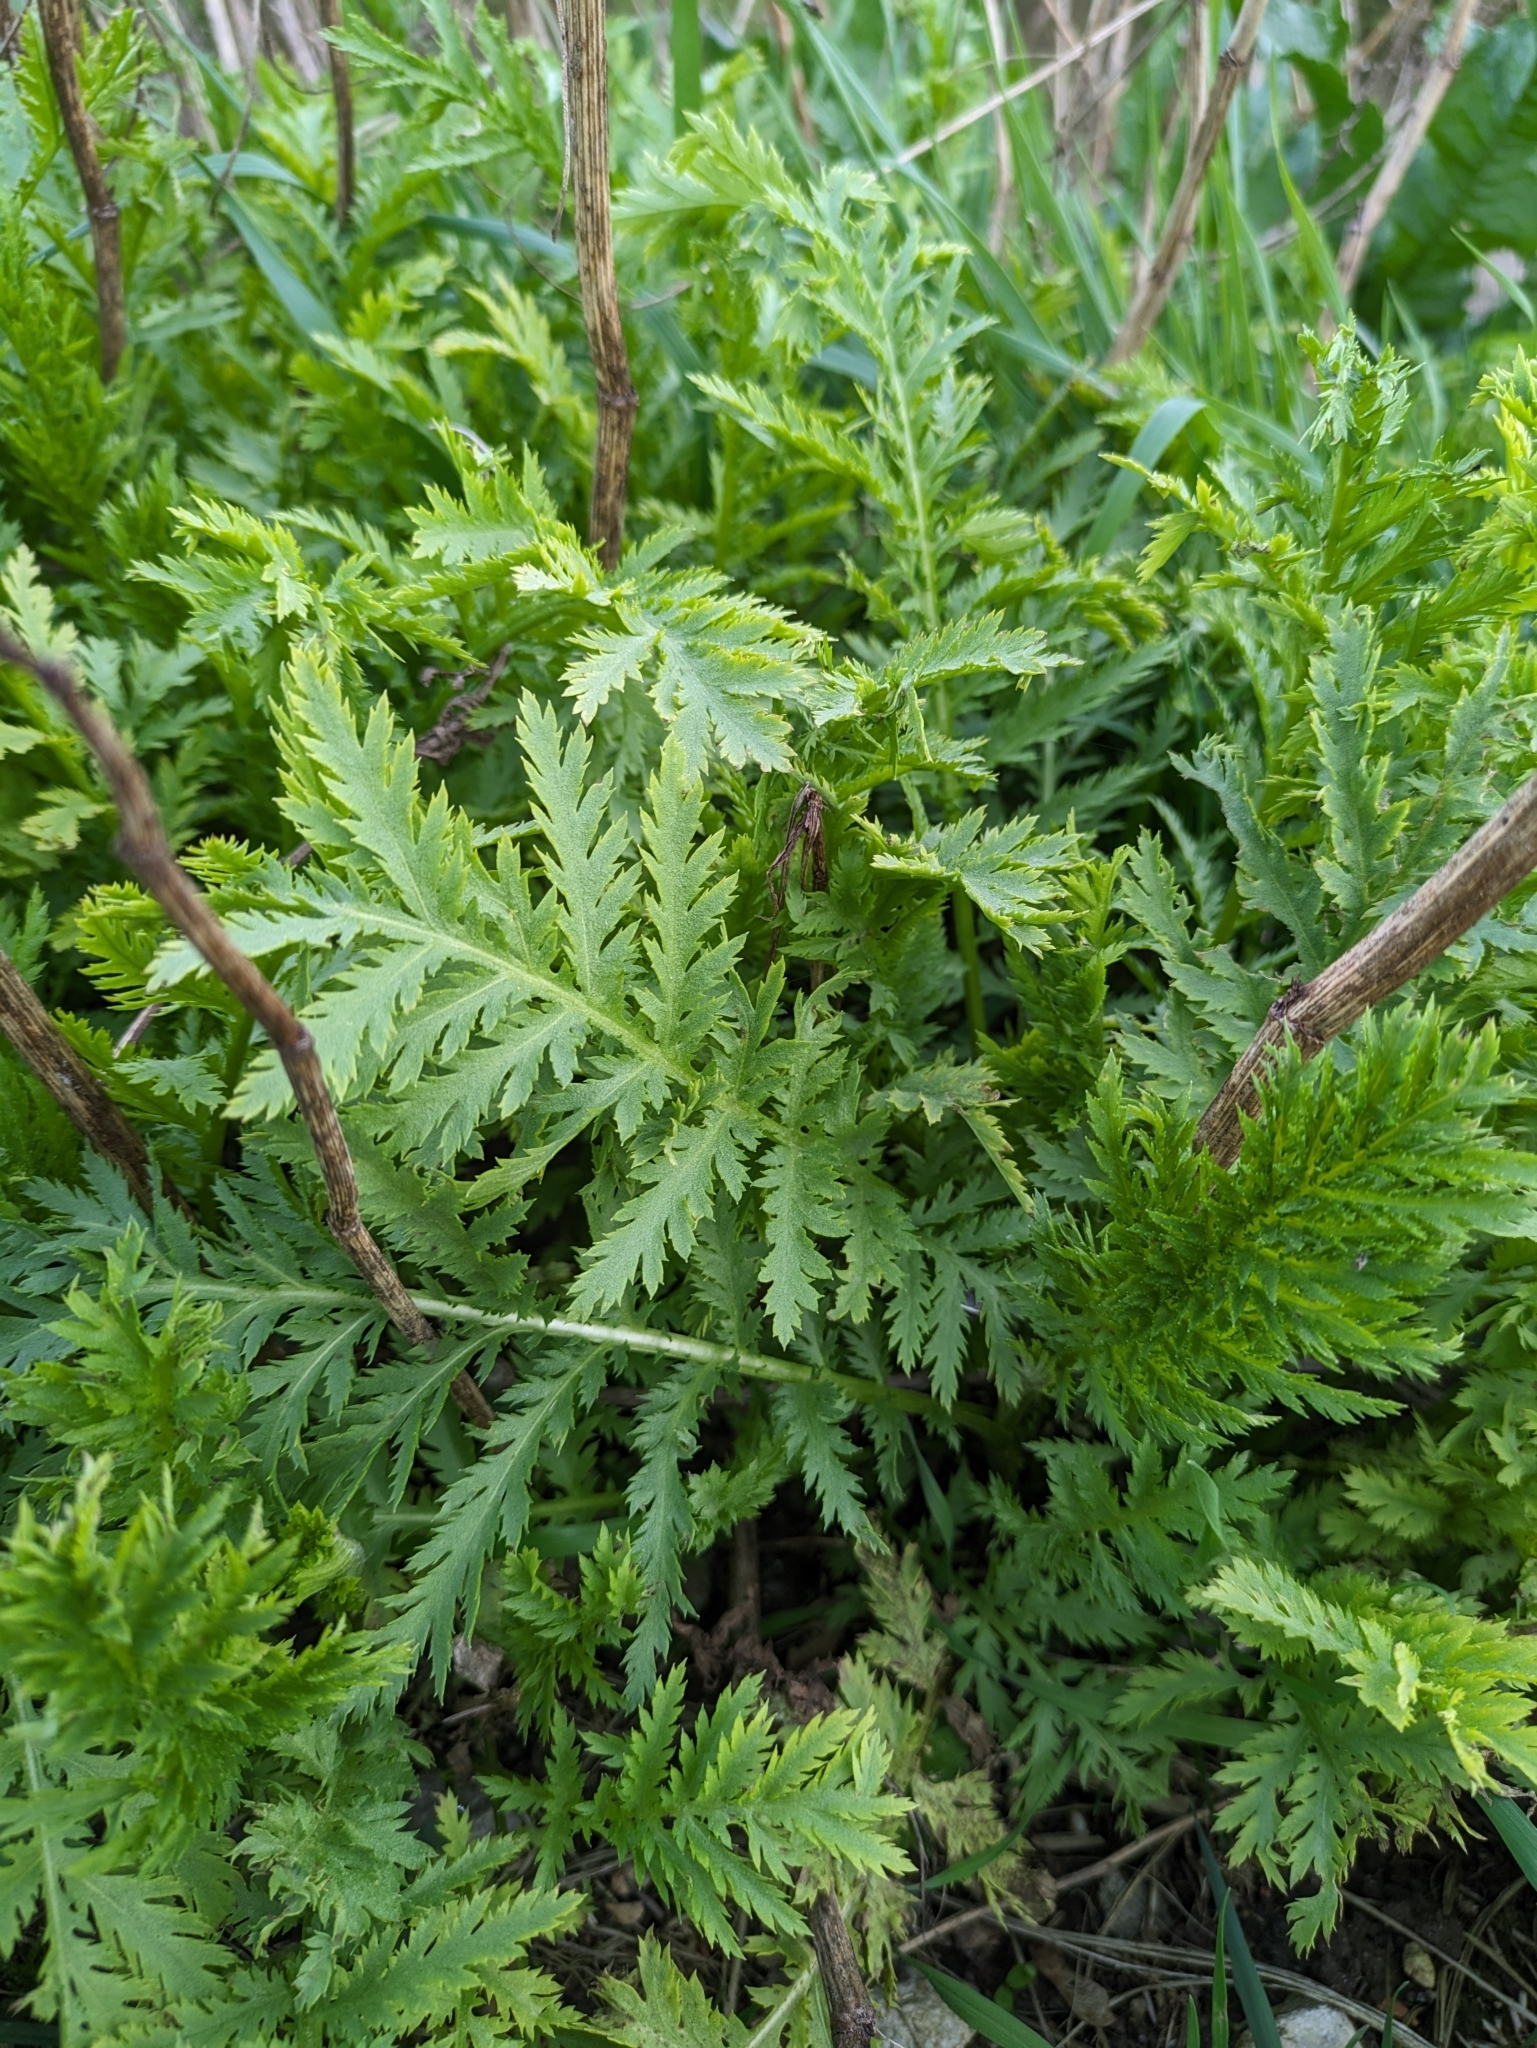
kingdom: Plantae
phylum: Tracheophyta
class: Magnoliopsida
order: Asterales
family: Asteraceae
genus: Tanacetum
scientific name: Tanacetum vulgare
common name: Common tansy
